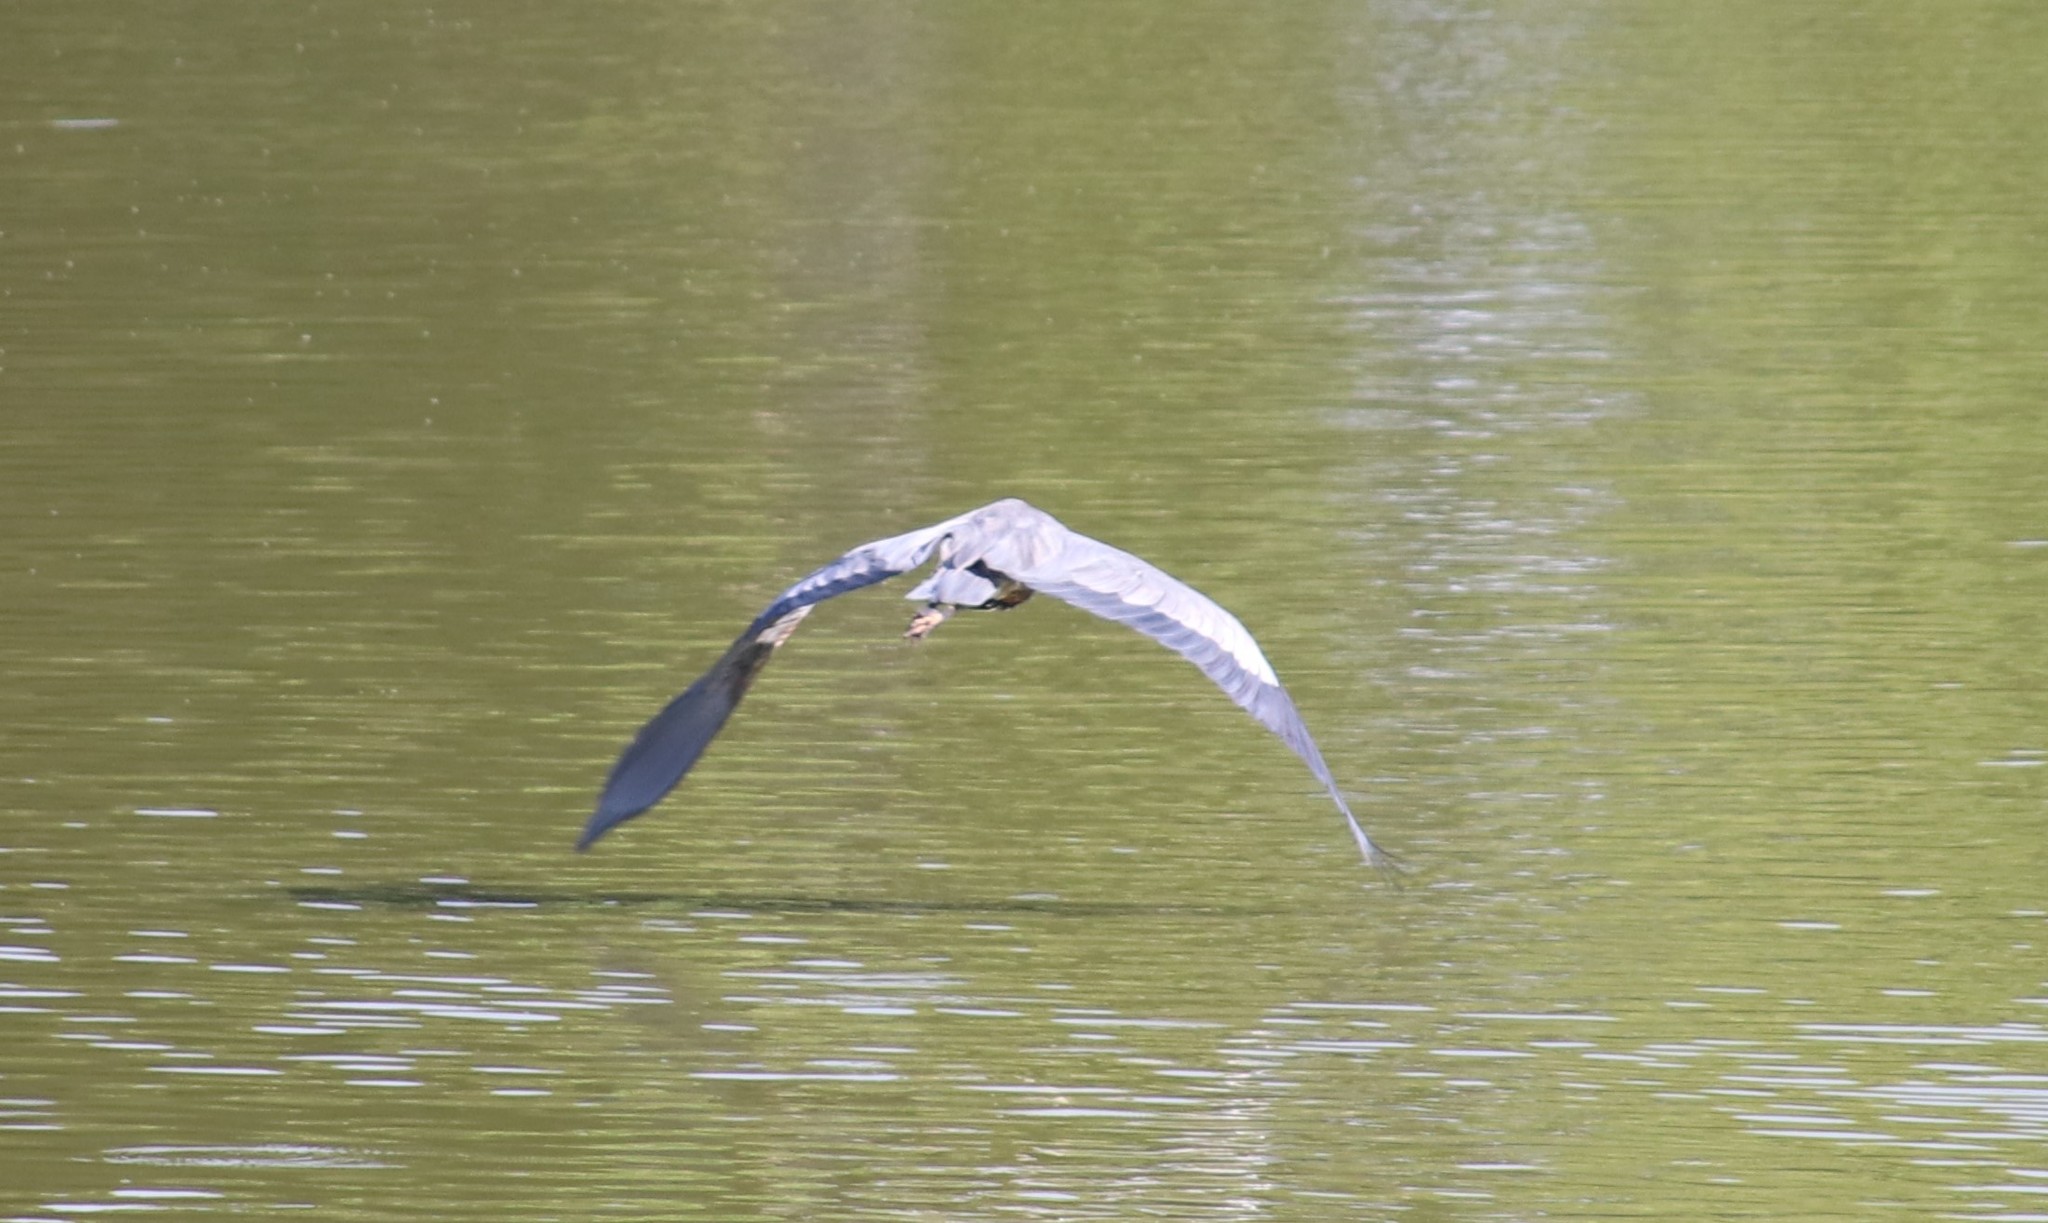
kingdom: Animalia
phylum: Chordata
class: Aves
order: Pelecaniformes
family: Ardeidae
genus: Ardea
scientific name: Ardea herodias
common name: Great blue heron
